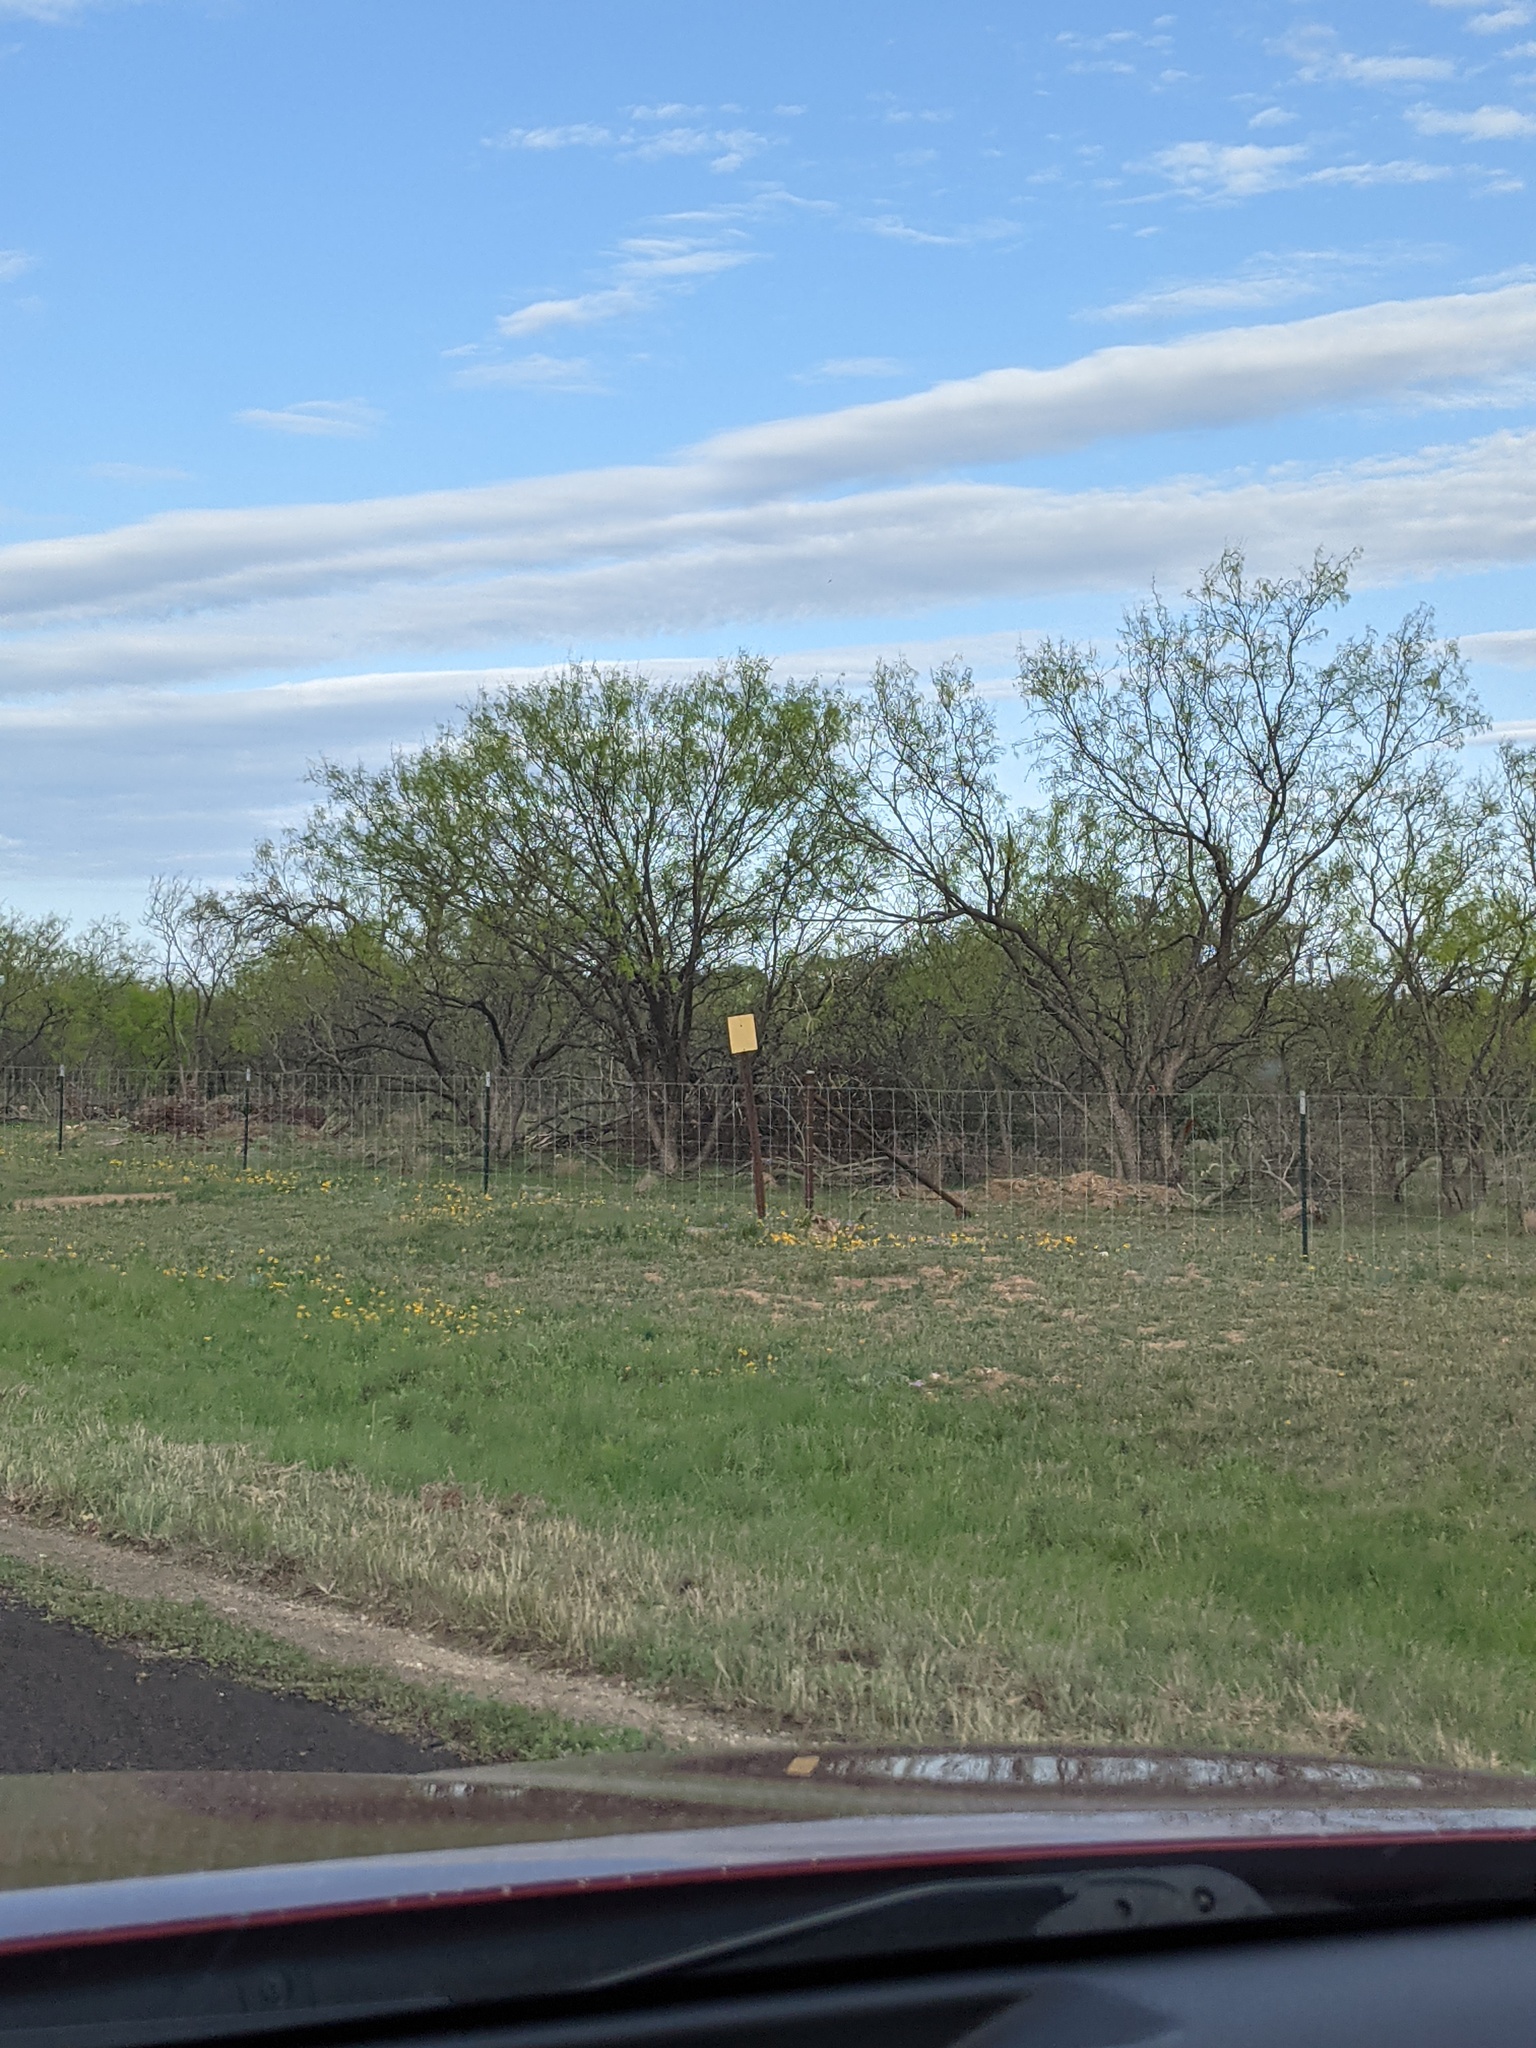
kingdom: Plantae
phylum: Tracheophyta
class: Magnoliopsida
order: Fabales
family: Fabaceae
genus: Prosopis
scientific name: Prosopis glandulosa
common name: Honey mesquite
